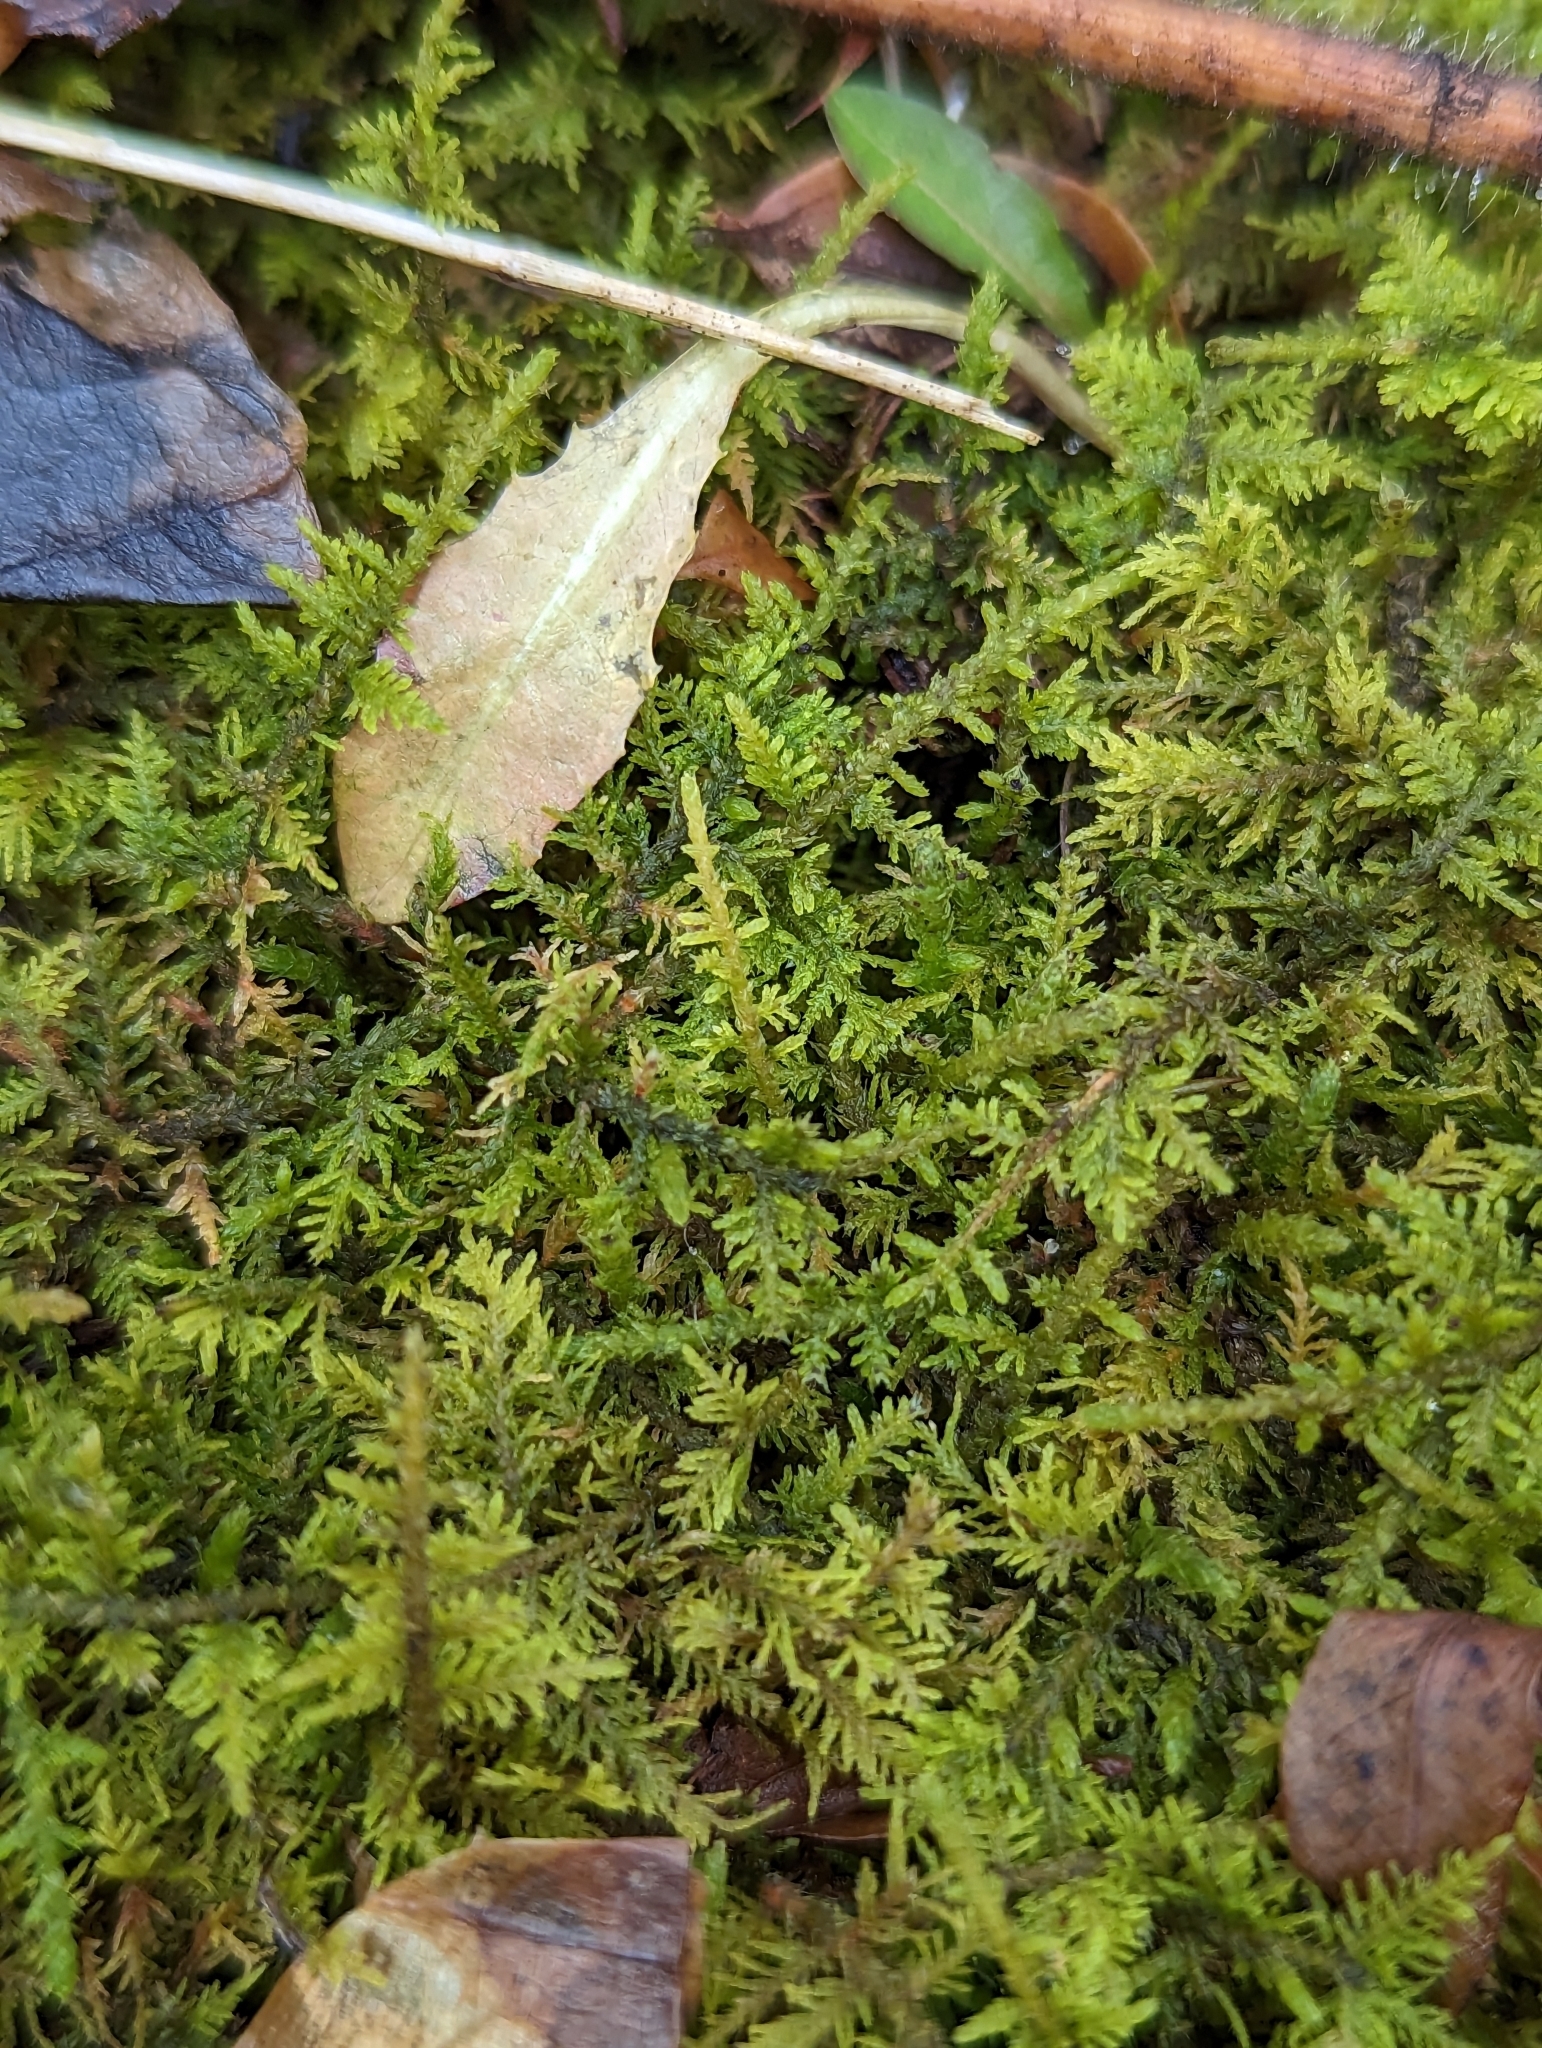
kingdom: Plantae
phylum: Bryophyta
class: Bryopsida
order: Hypnales
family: Thuidiaceae
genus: Thuidium
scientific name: Thuidium delicatulum
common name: Delicate fern moss
